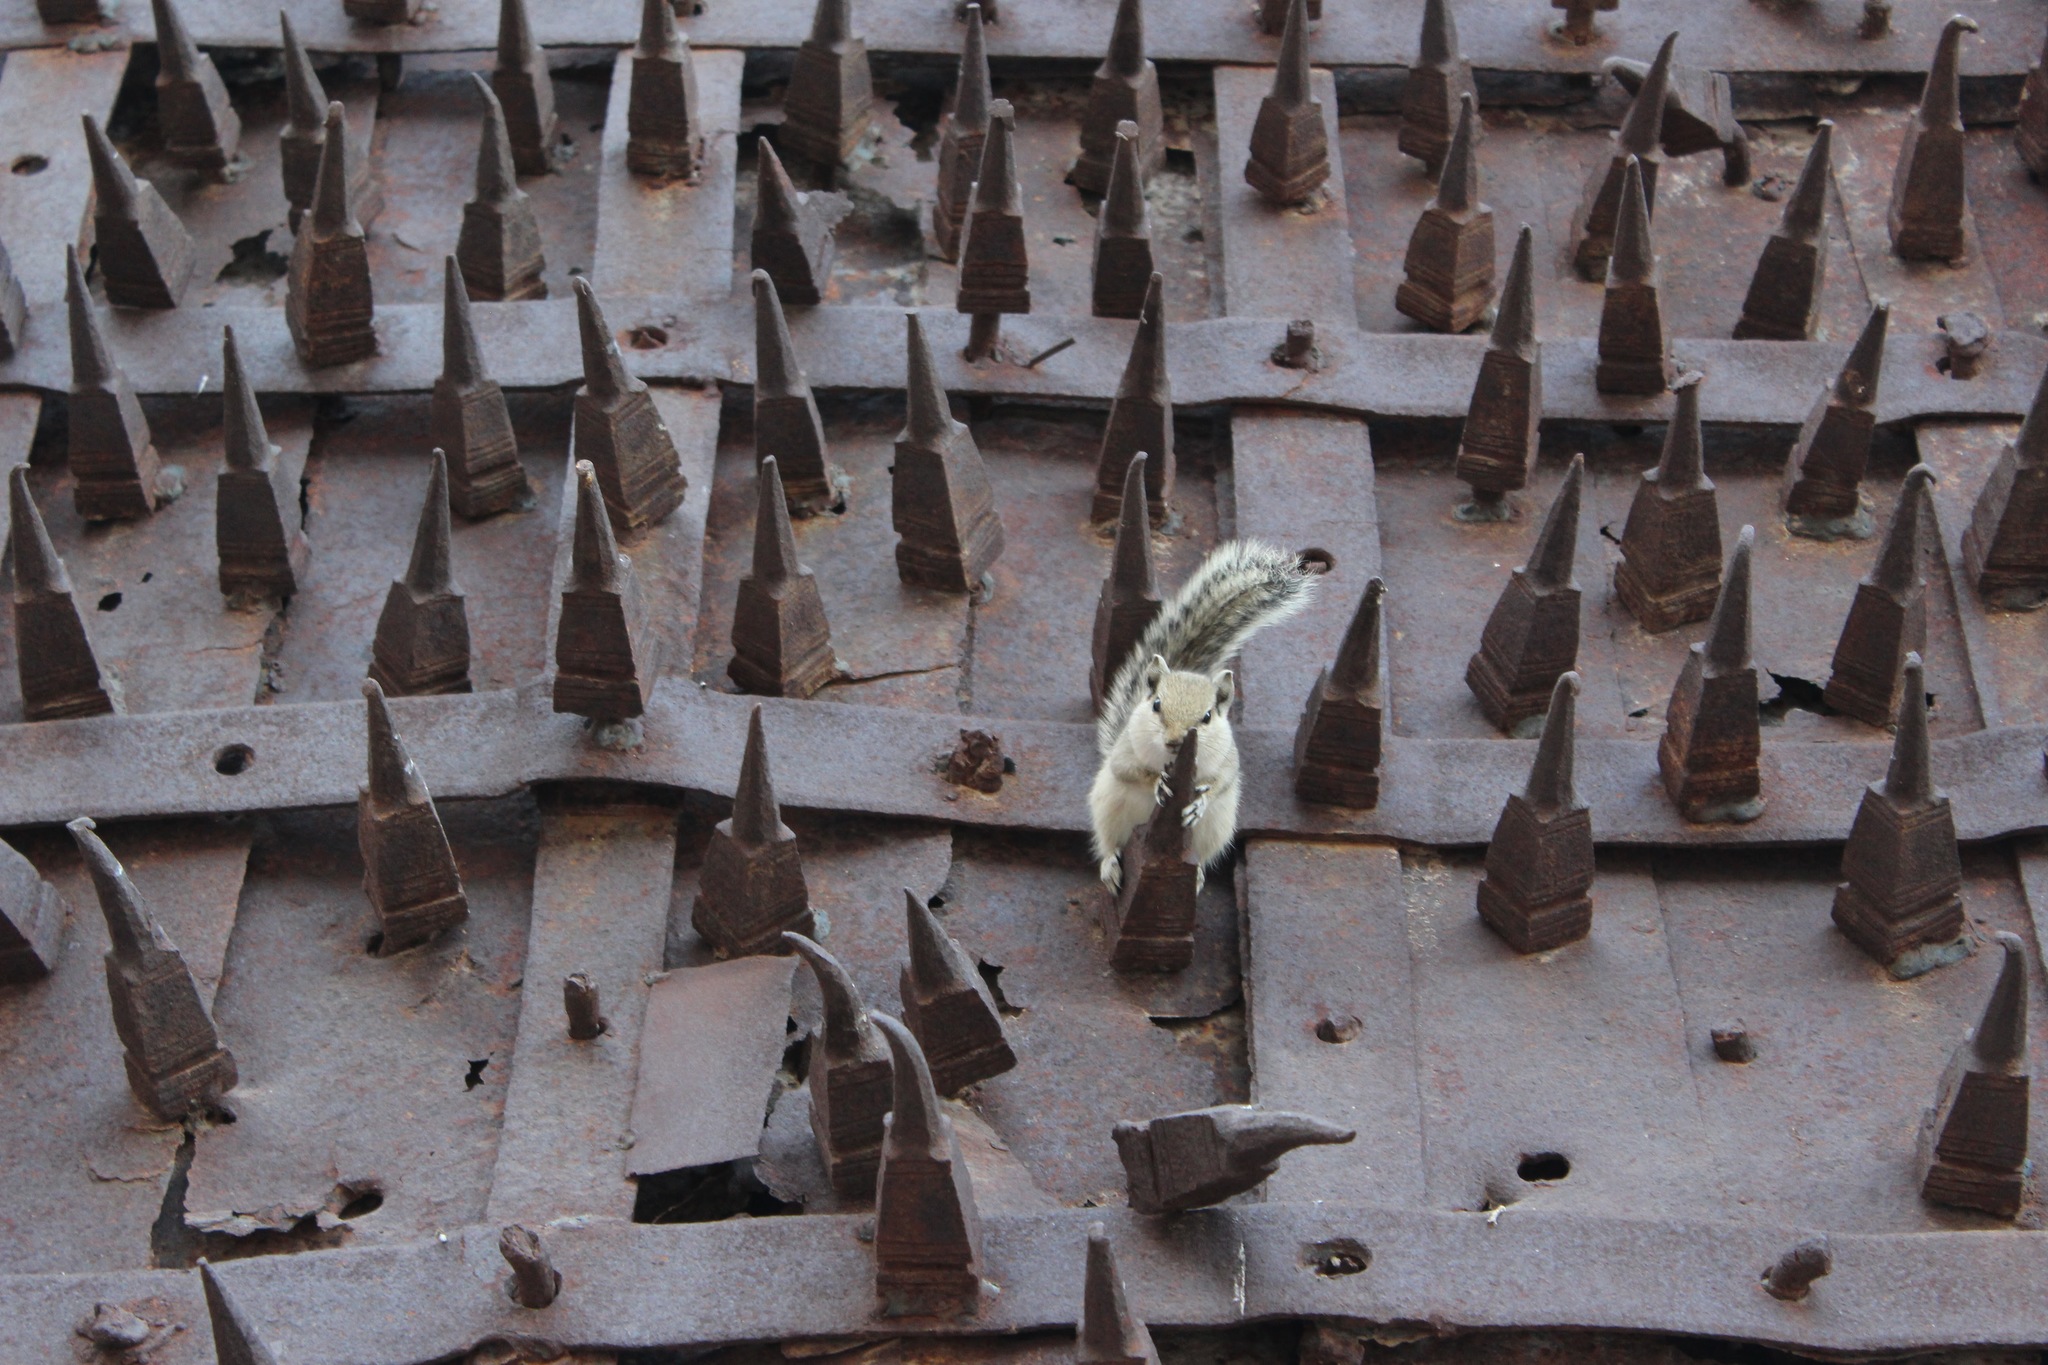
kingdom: Animalia
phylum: Chordata
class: Mammalia
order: Rodentia
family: Sciuridae
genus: Funambulus
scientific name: Funambulus pennantii
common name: Northern palm squirrel
